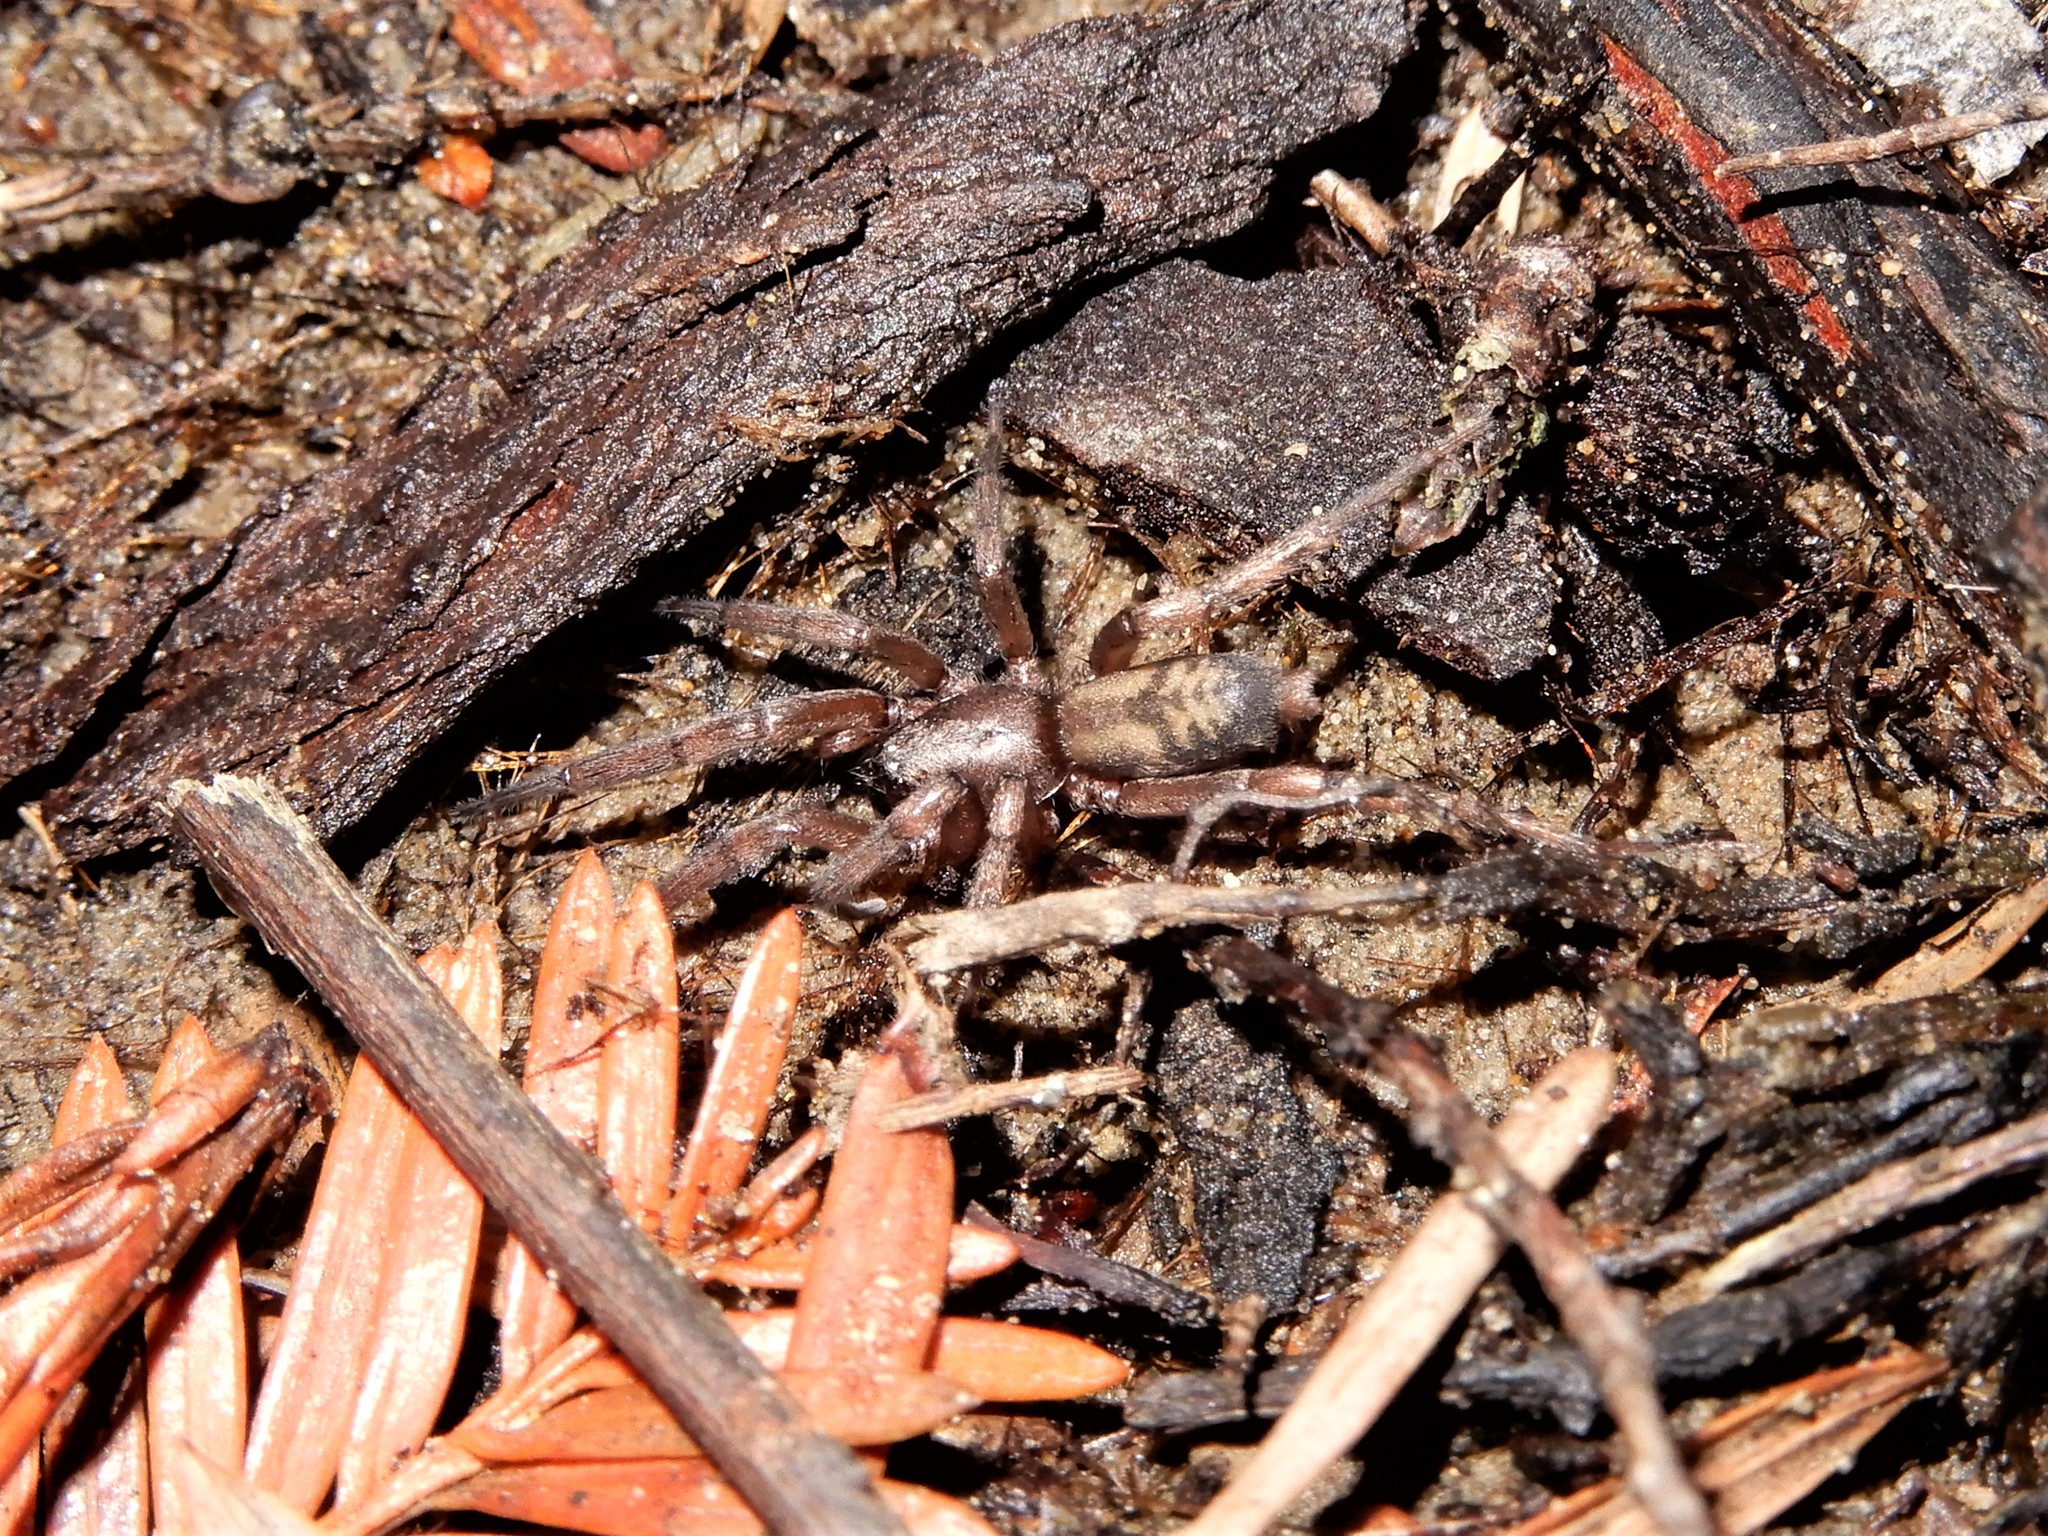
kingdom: Animalia
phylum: Arthropoda
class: Arachnida
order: Araneae
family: Gnaphosidae
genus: Intruda
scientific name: Intruda signata
